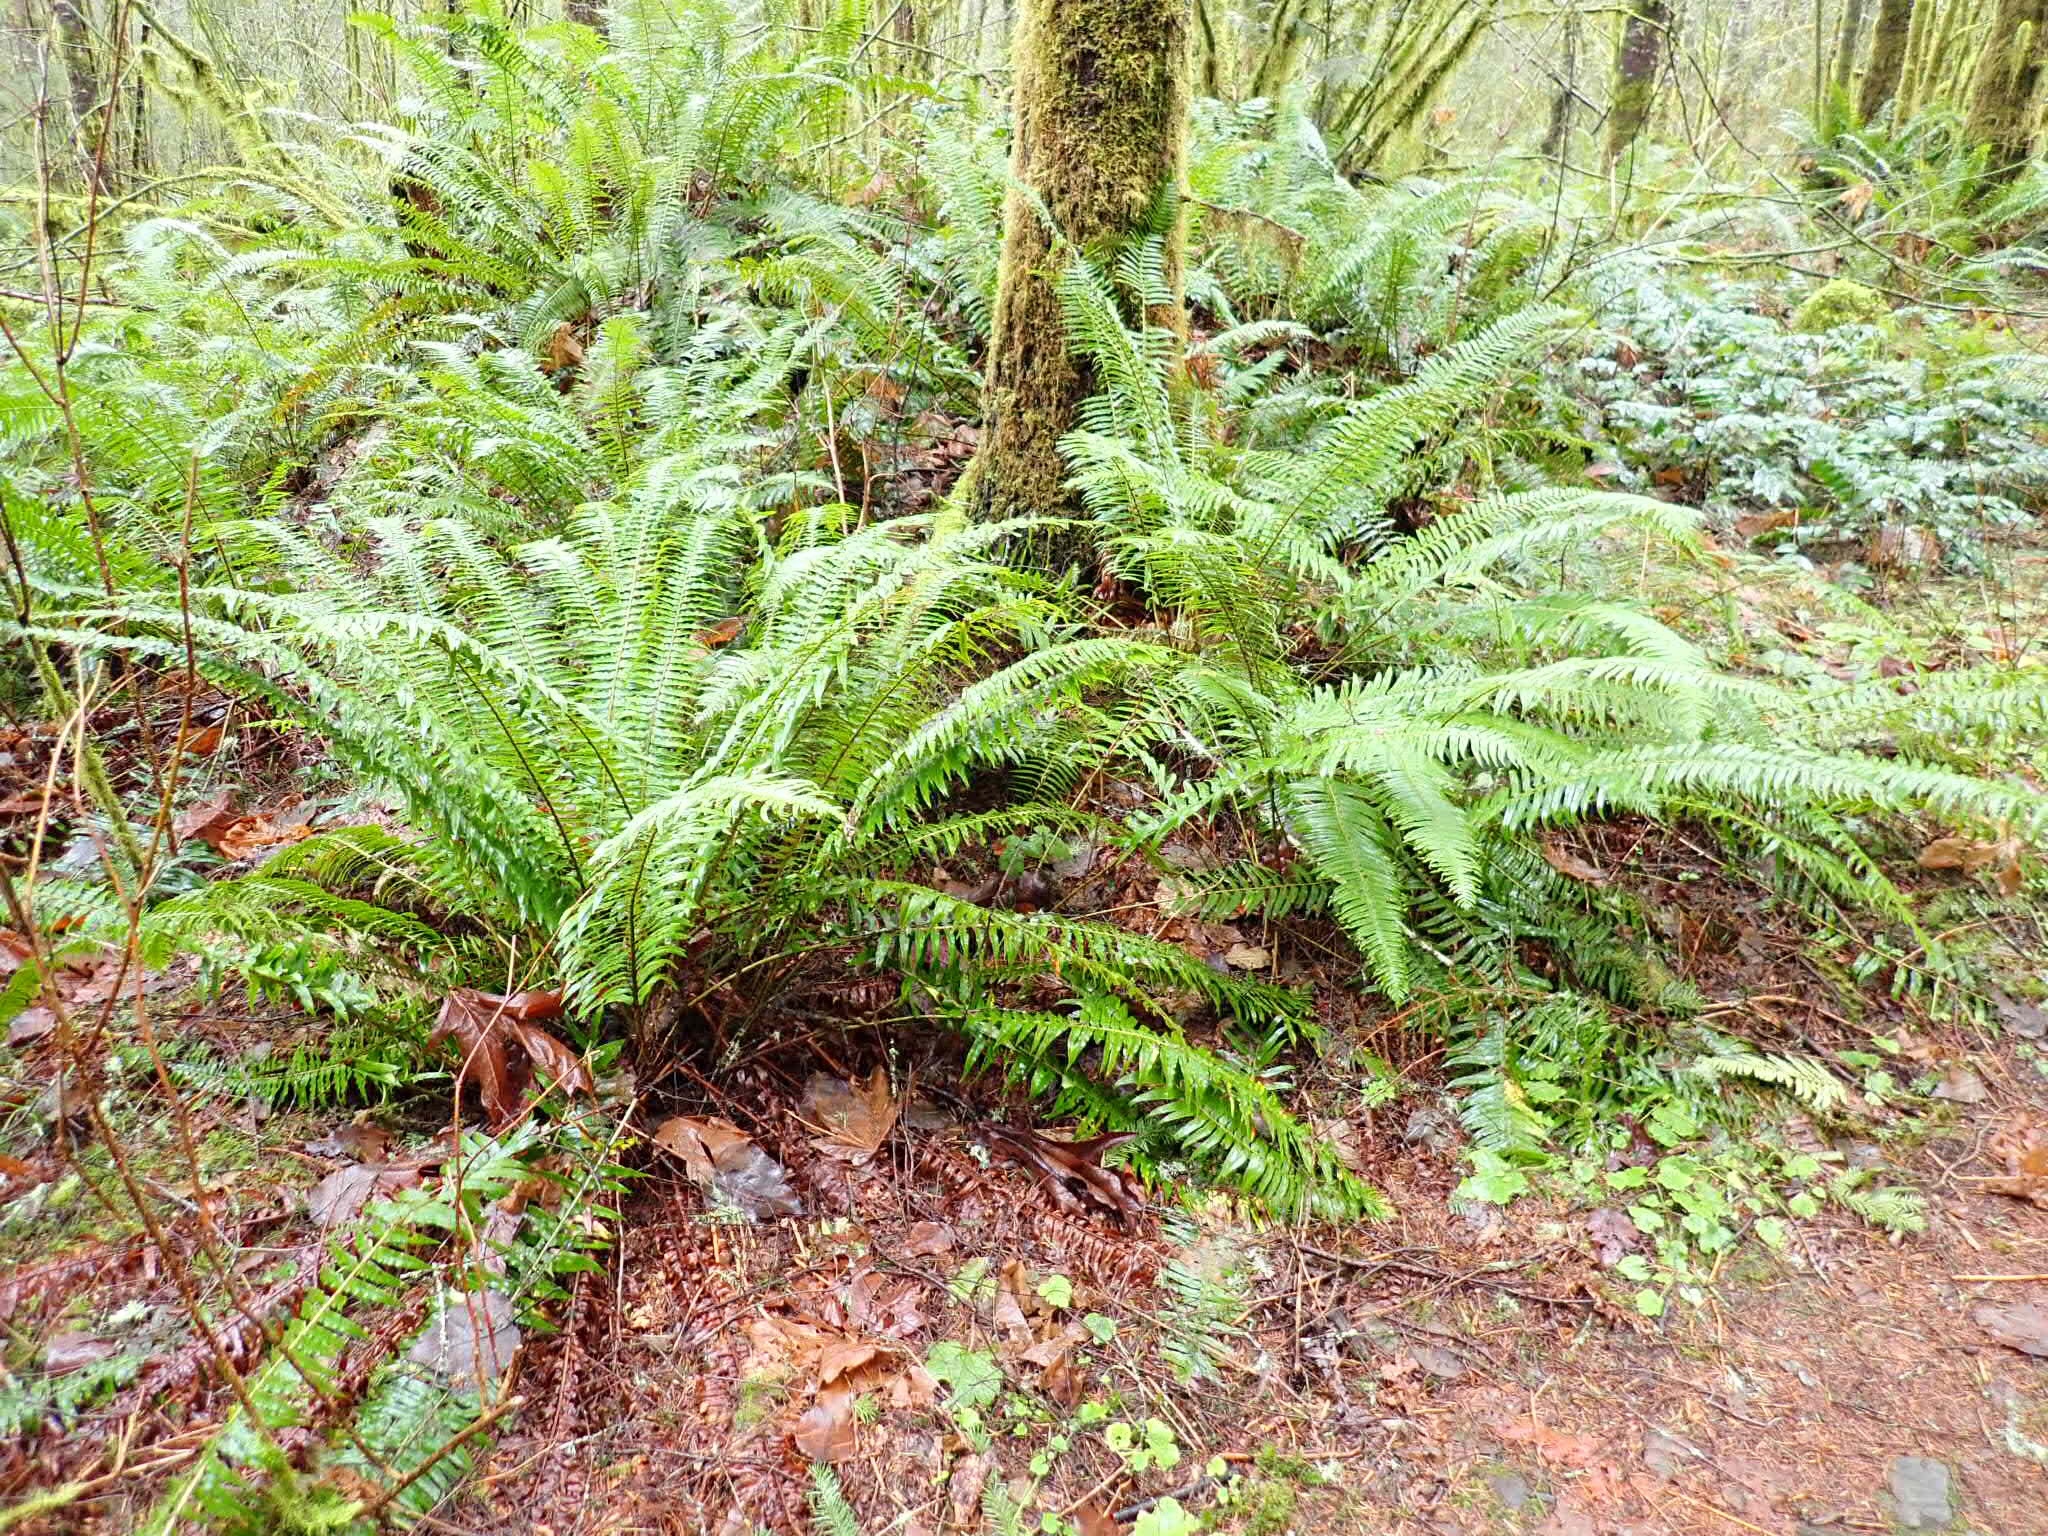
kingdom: Plantae
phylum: Tracheophyta
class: Polypodiopsida
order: Polypodiales
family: Dryopteridaceae
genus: Polystichum
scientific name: Polystichum munitum
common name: Western sword-fern
